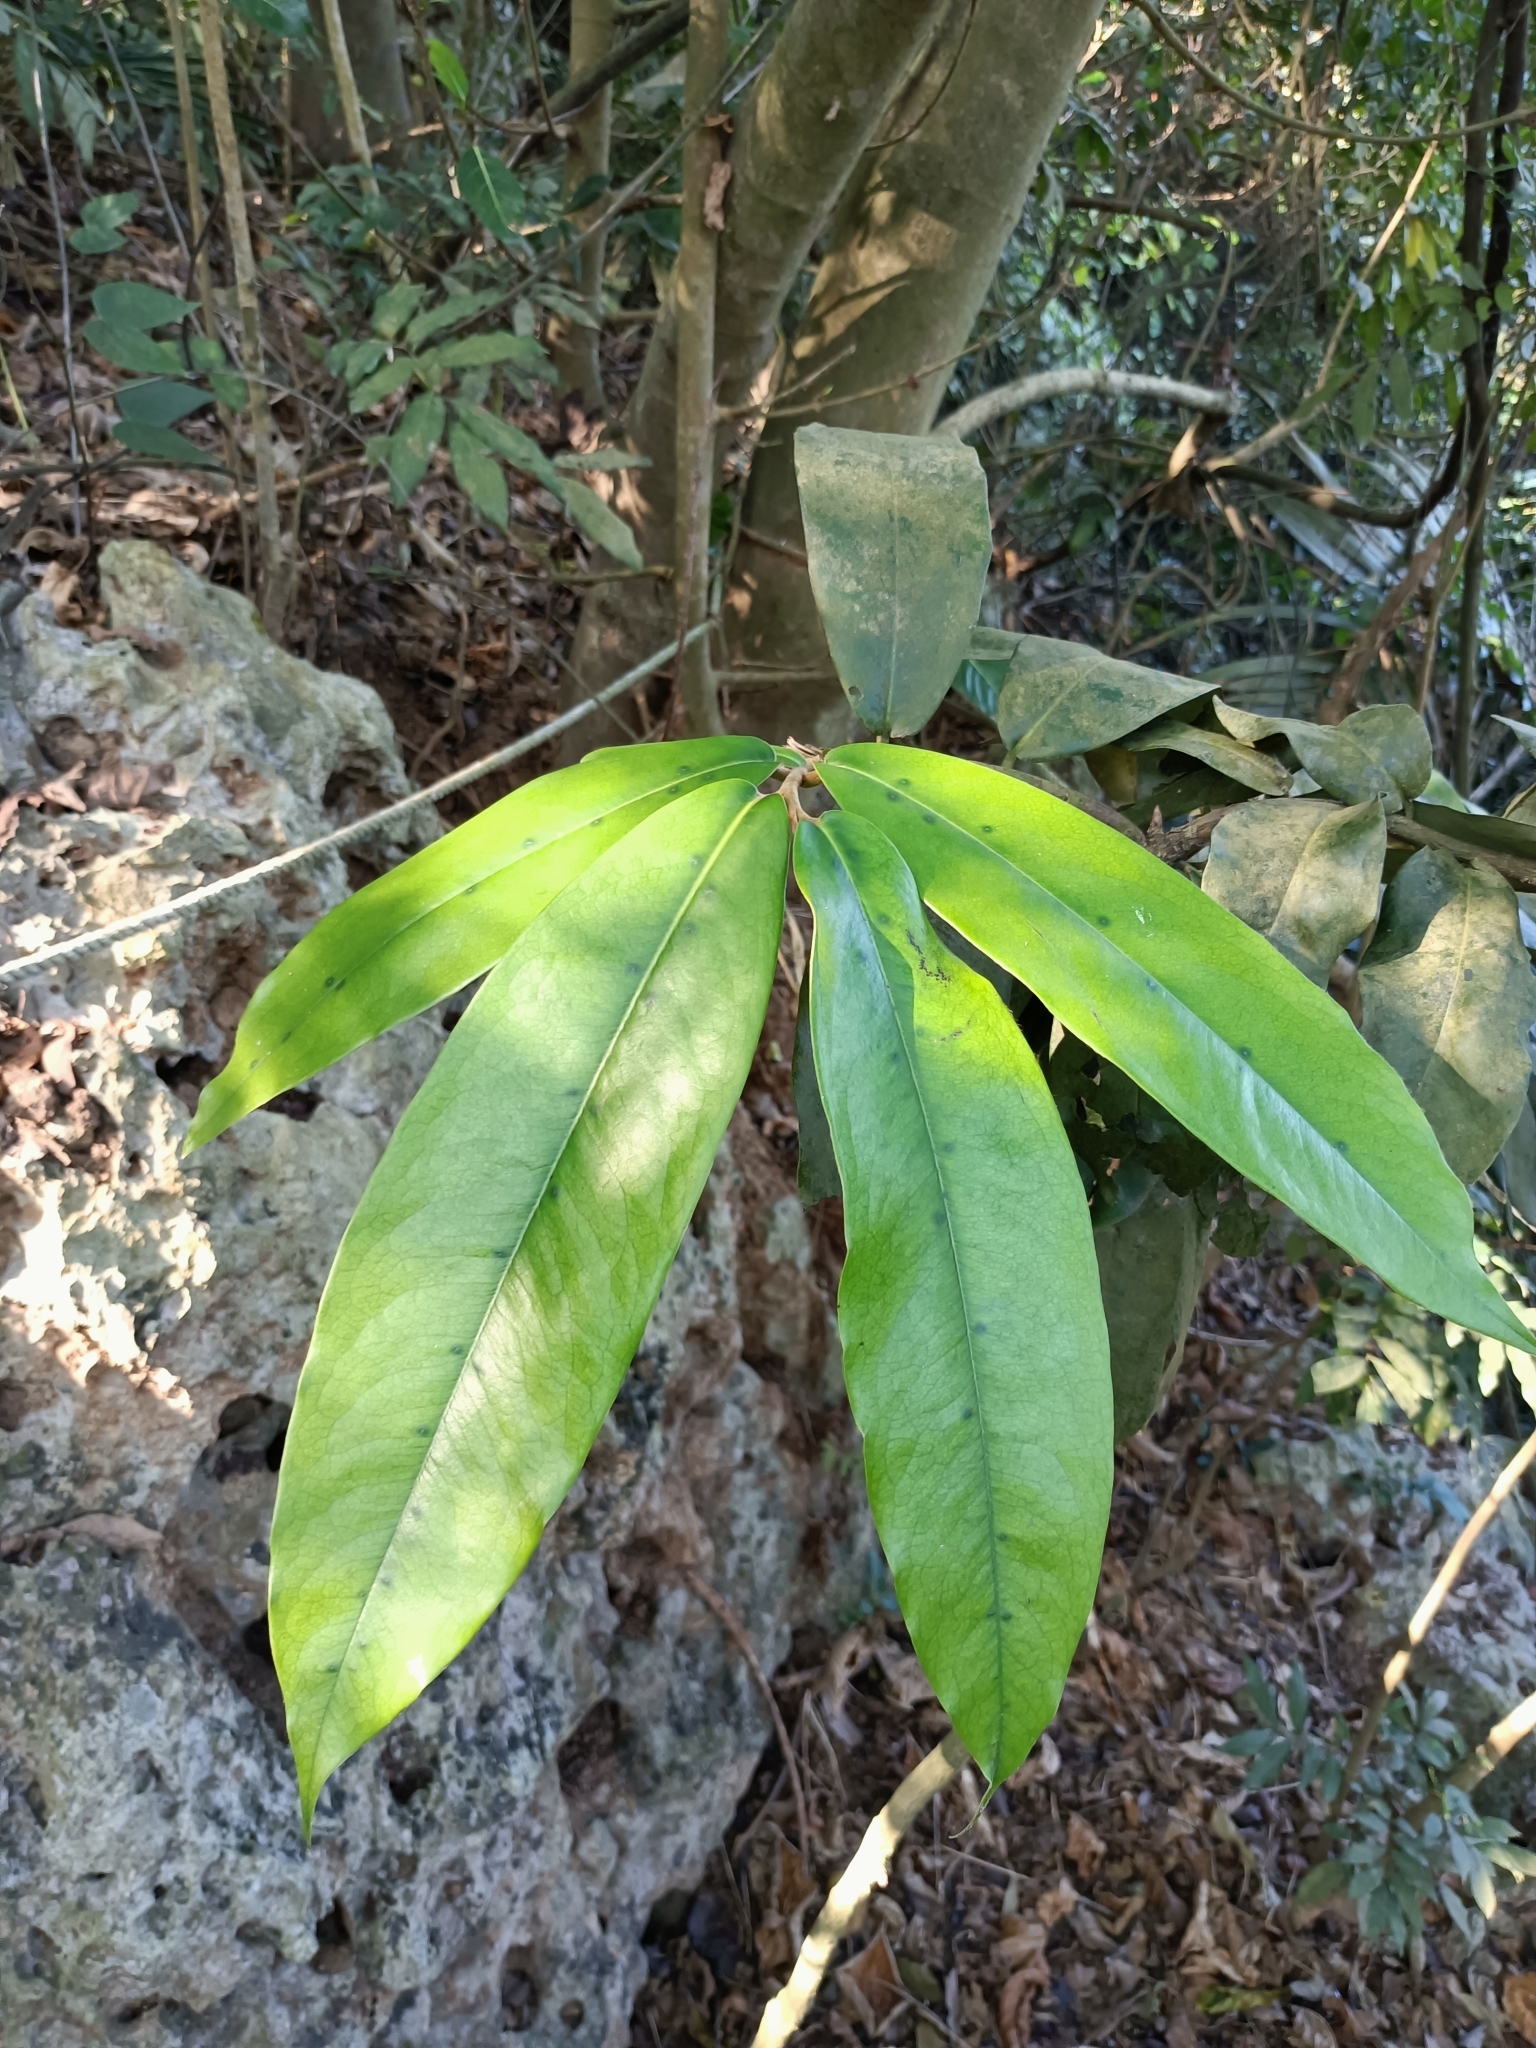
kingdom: Plantae
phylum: Tracheophyta
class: Magnoliopsida
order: Ericales
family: Ebenaceae
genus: Diospyros
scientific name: Diospyros blancoi
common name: Mabola-tree
